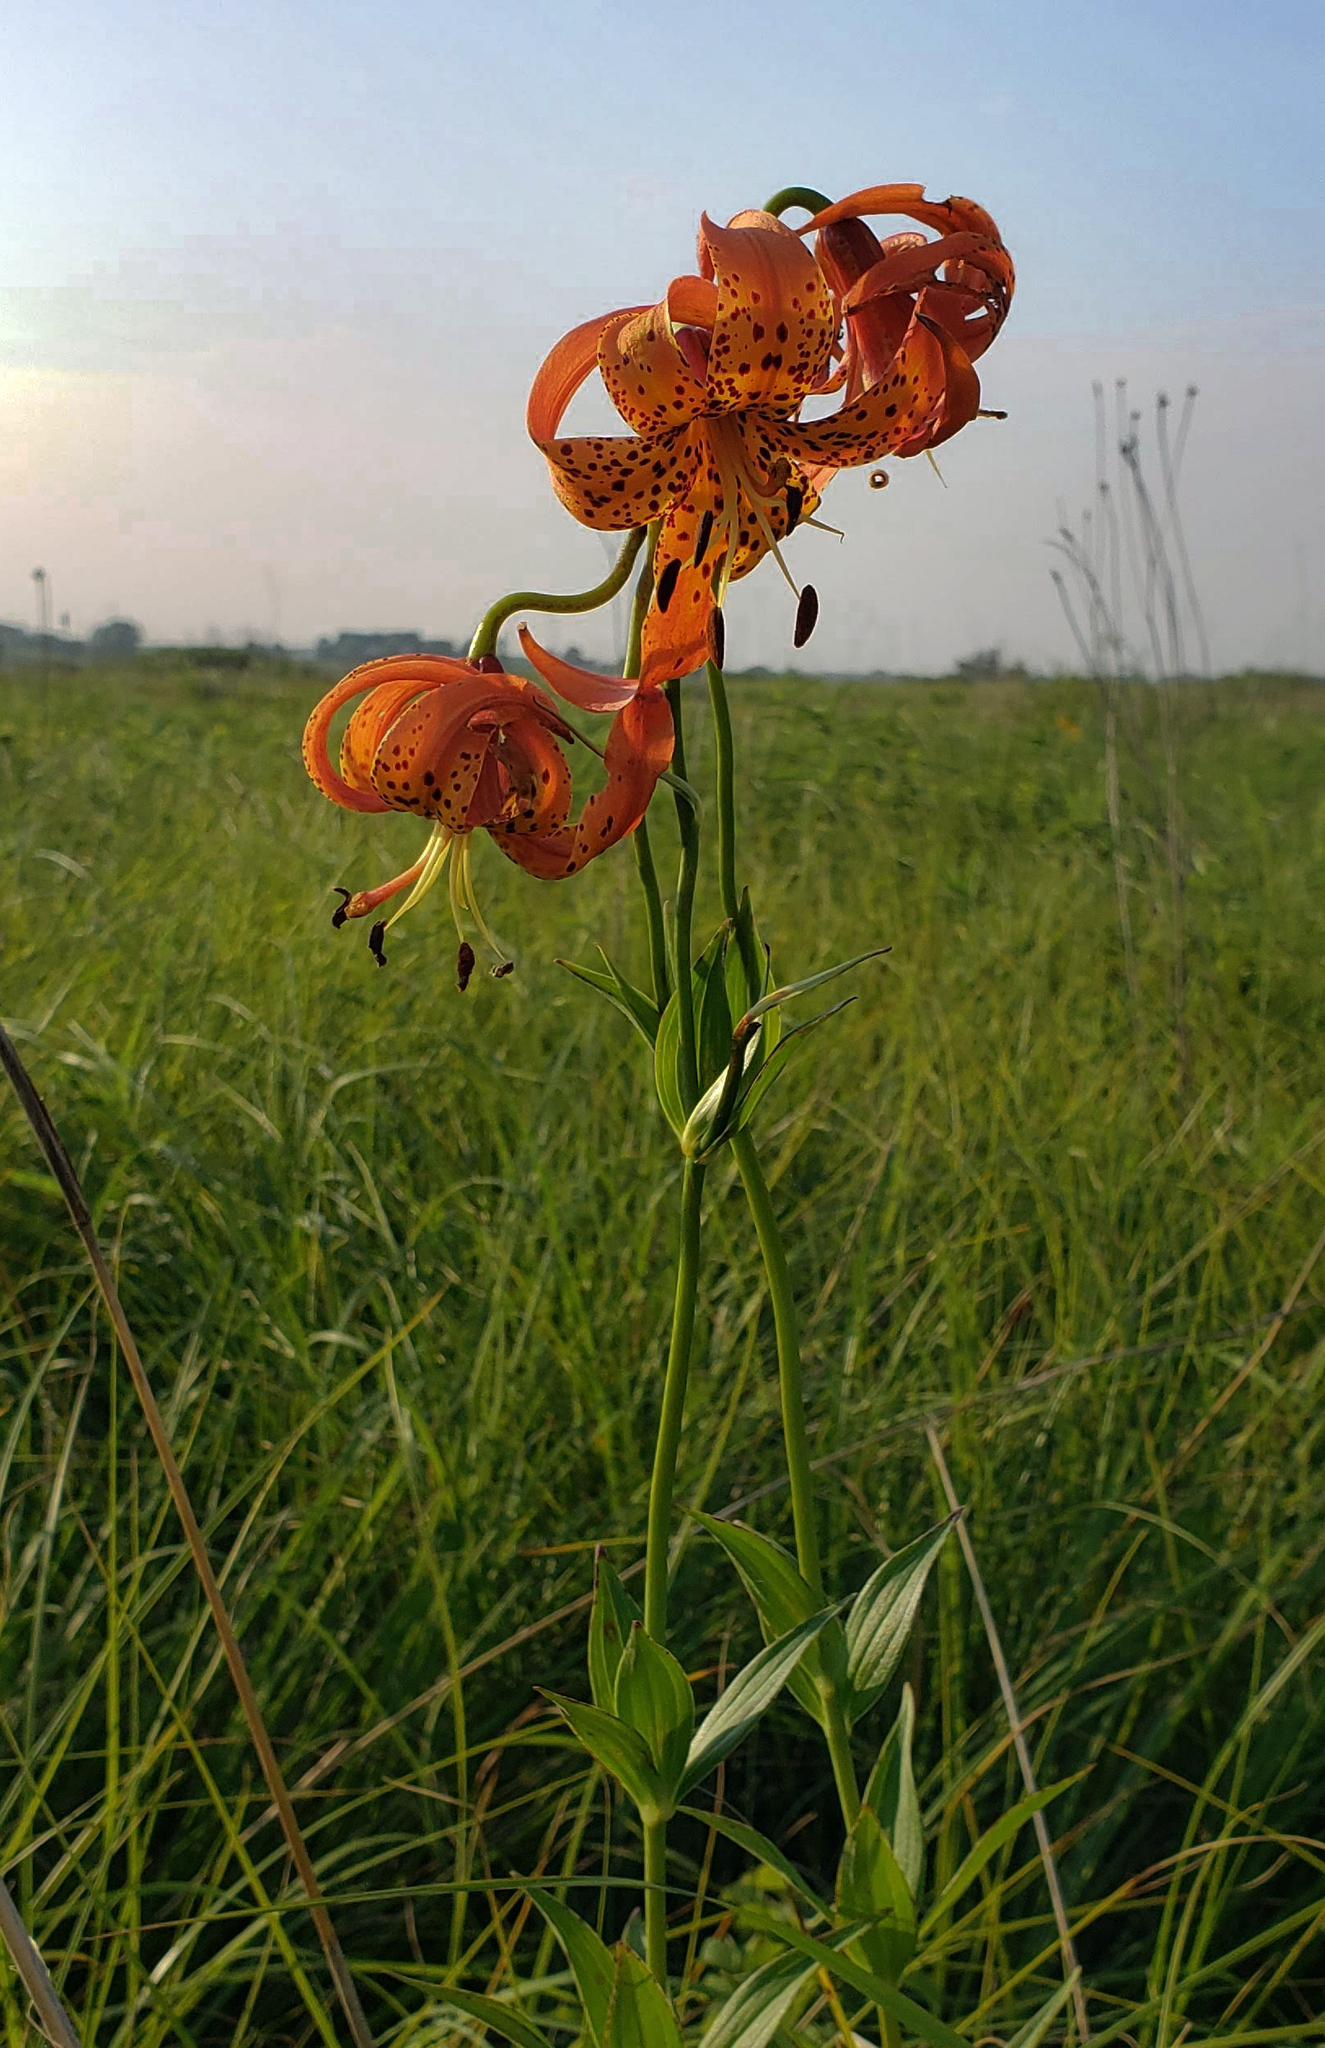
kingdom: Plantae
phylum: Tracheophyta
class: Liliopsida
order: Liliales
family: Liliaceae
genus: Lilium
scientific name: Lilium michiganense
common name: Michigan lily
